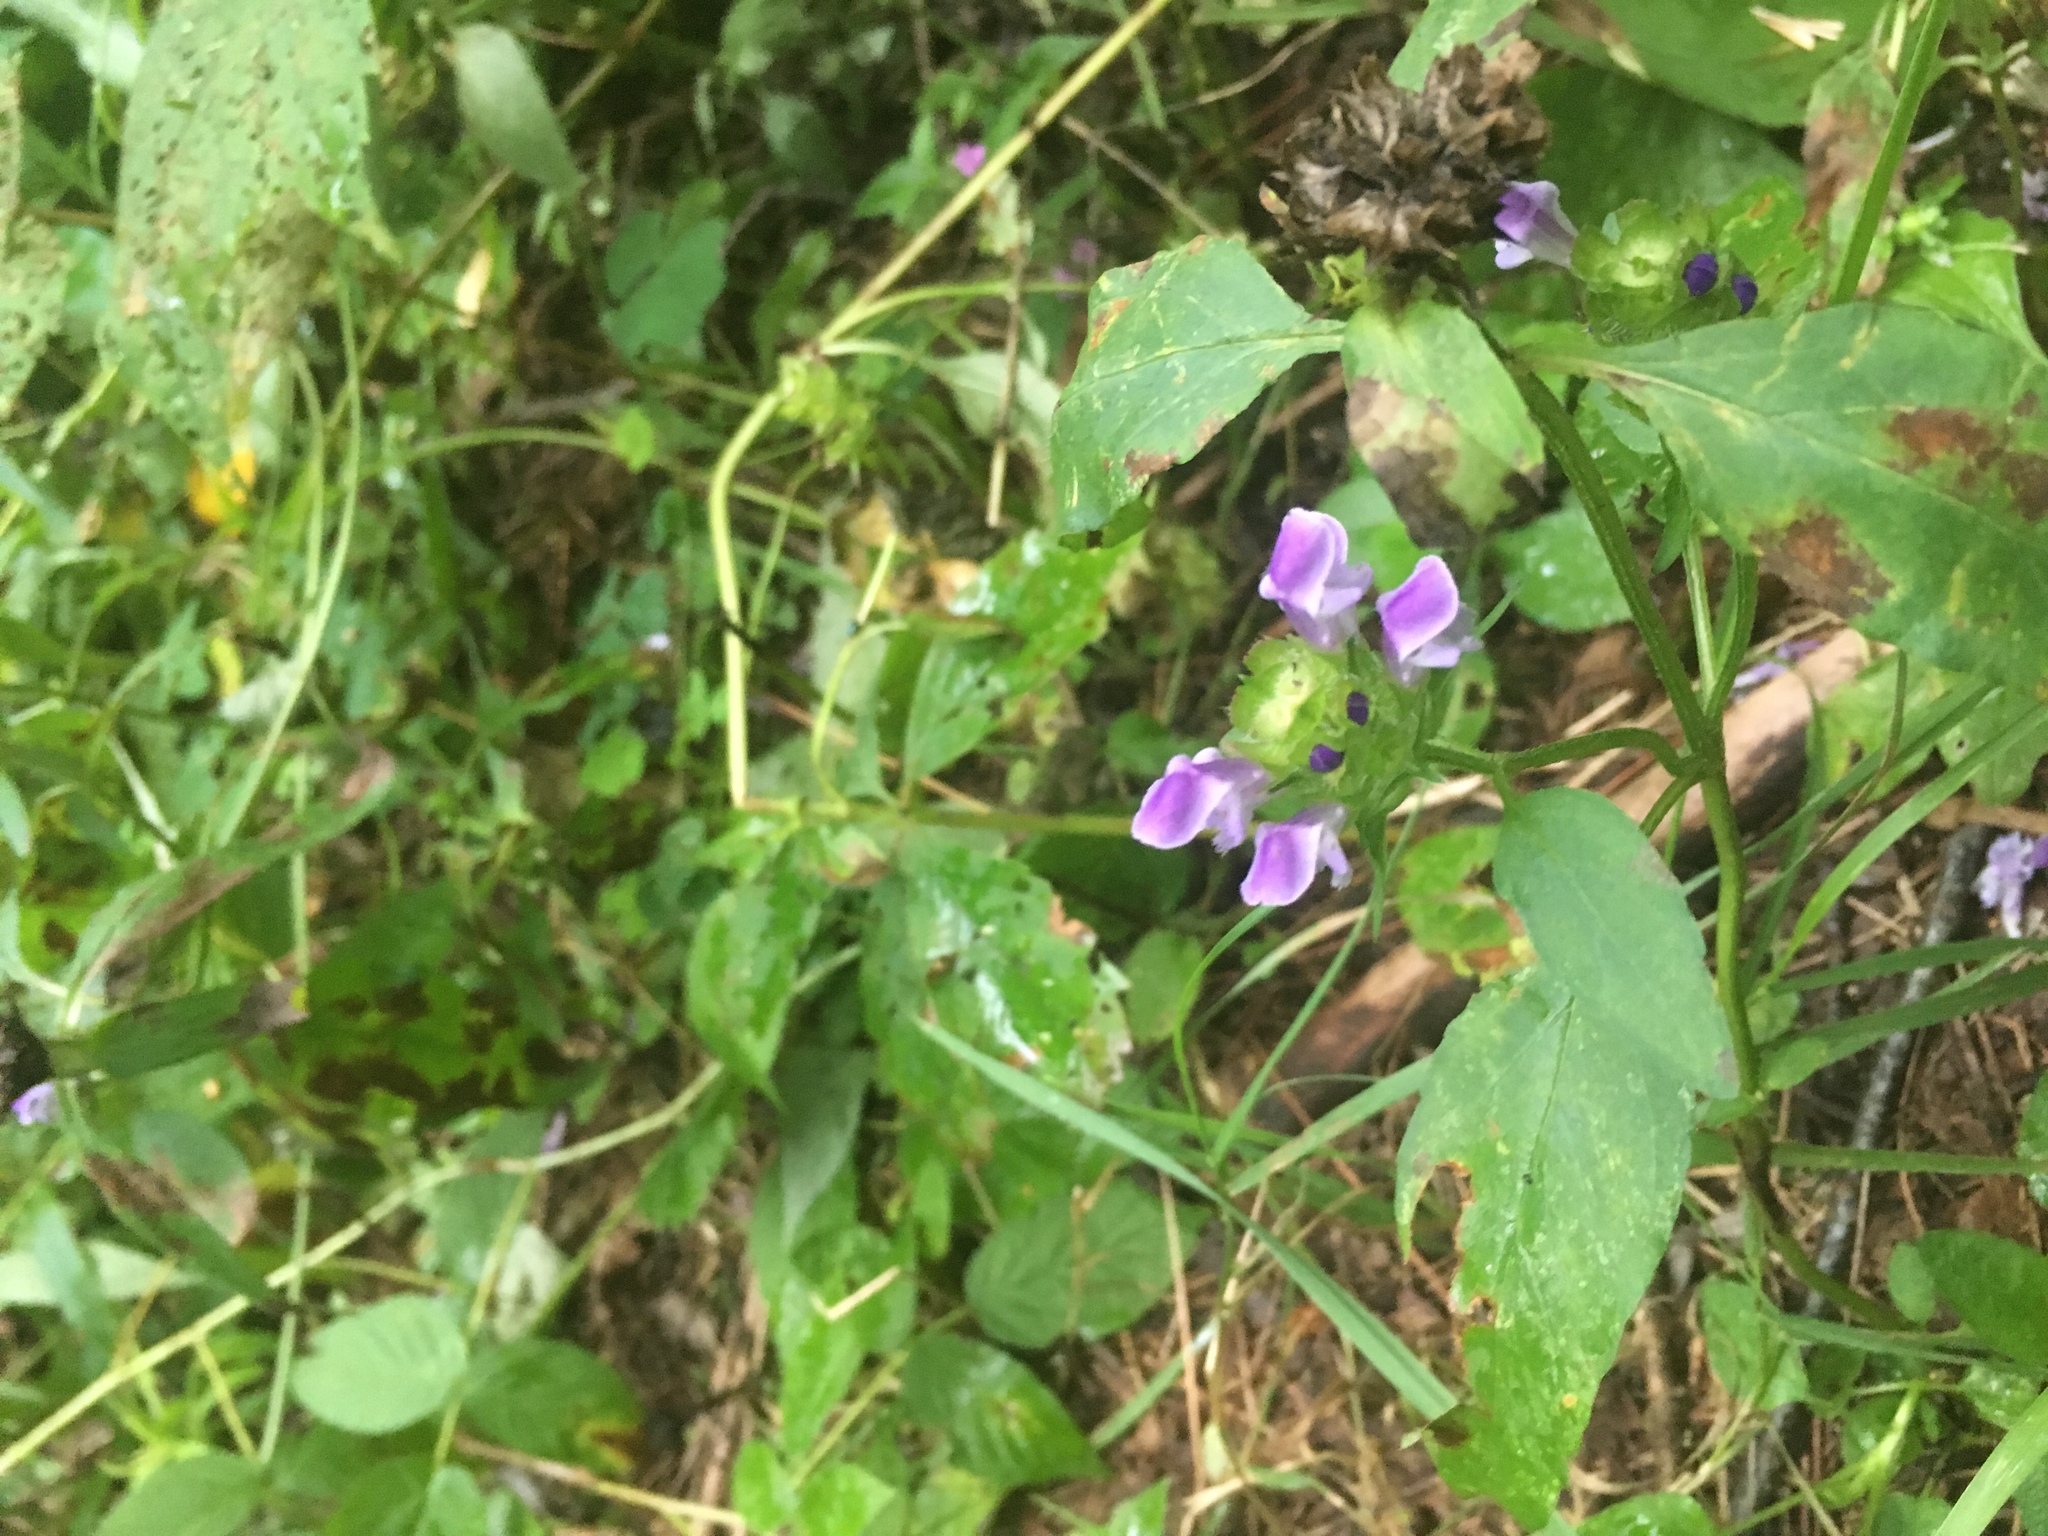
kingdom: Plantae
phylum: Tracheophyta
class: Magnoliopsida
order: Lamiales
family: Lamiaceae
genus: Prunella
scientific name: Prunella vulgaris
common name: Heal-all
